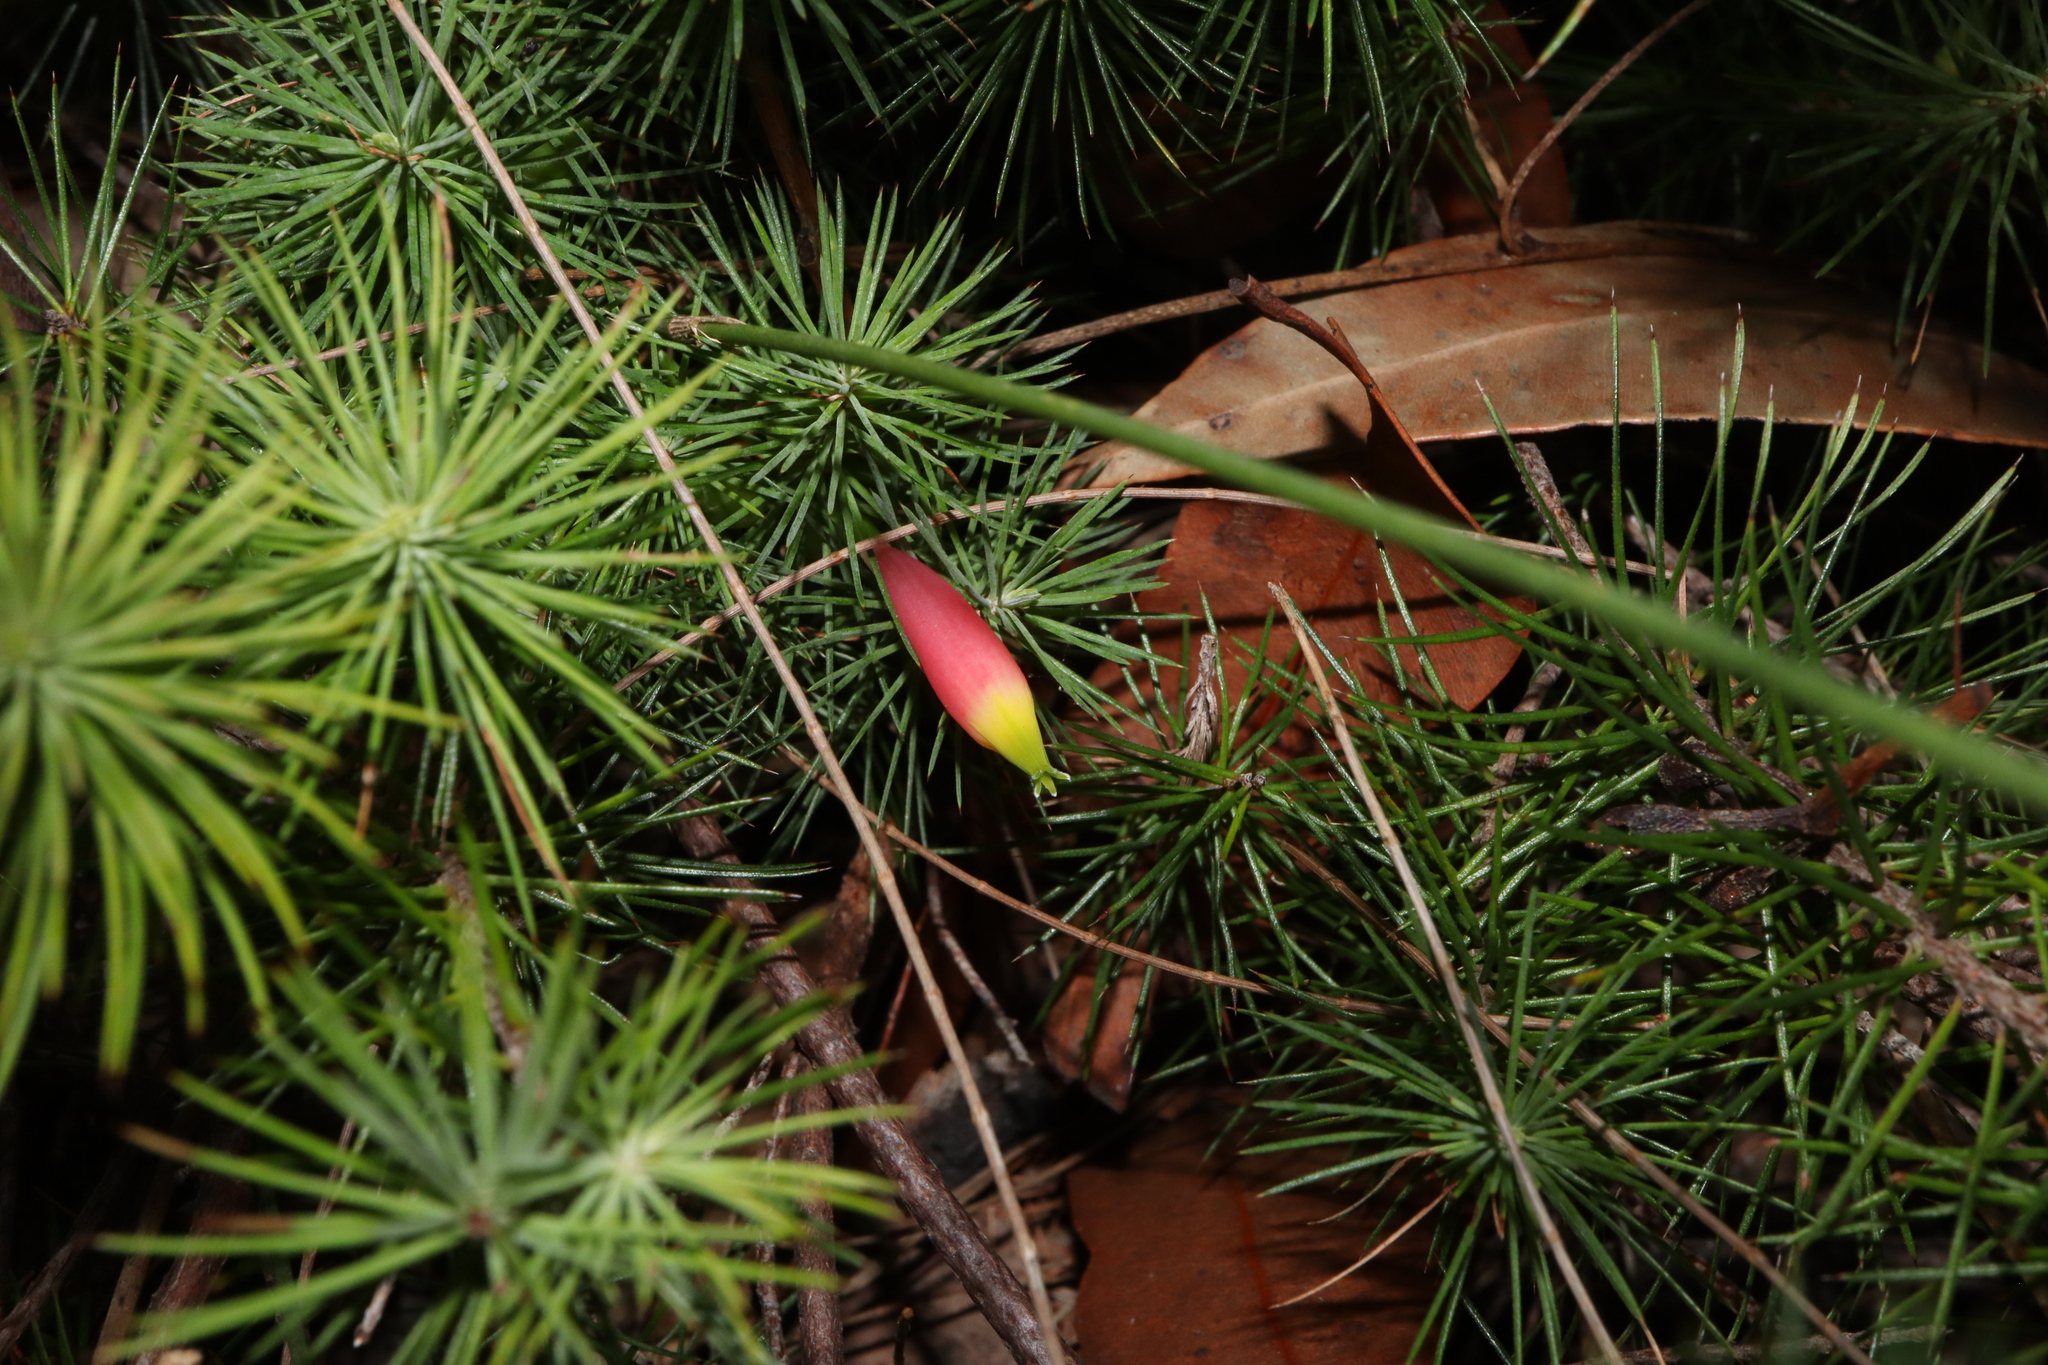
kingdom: Plantae
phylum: Tracheophyta
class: Magnoliopsida
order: Ericales
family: Ericaceae
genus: Stenanthera
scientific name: Stenanthera pinifolia
